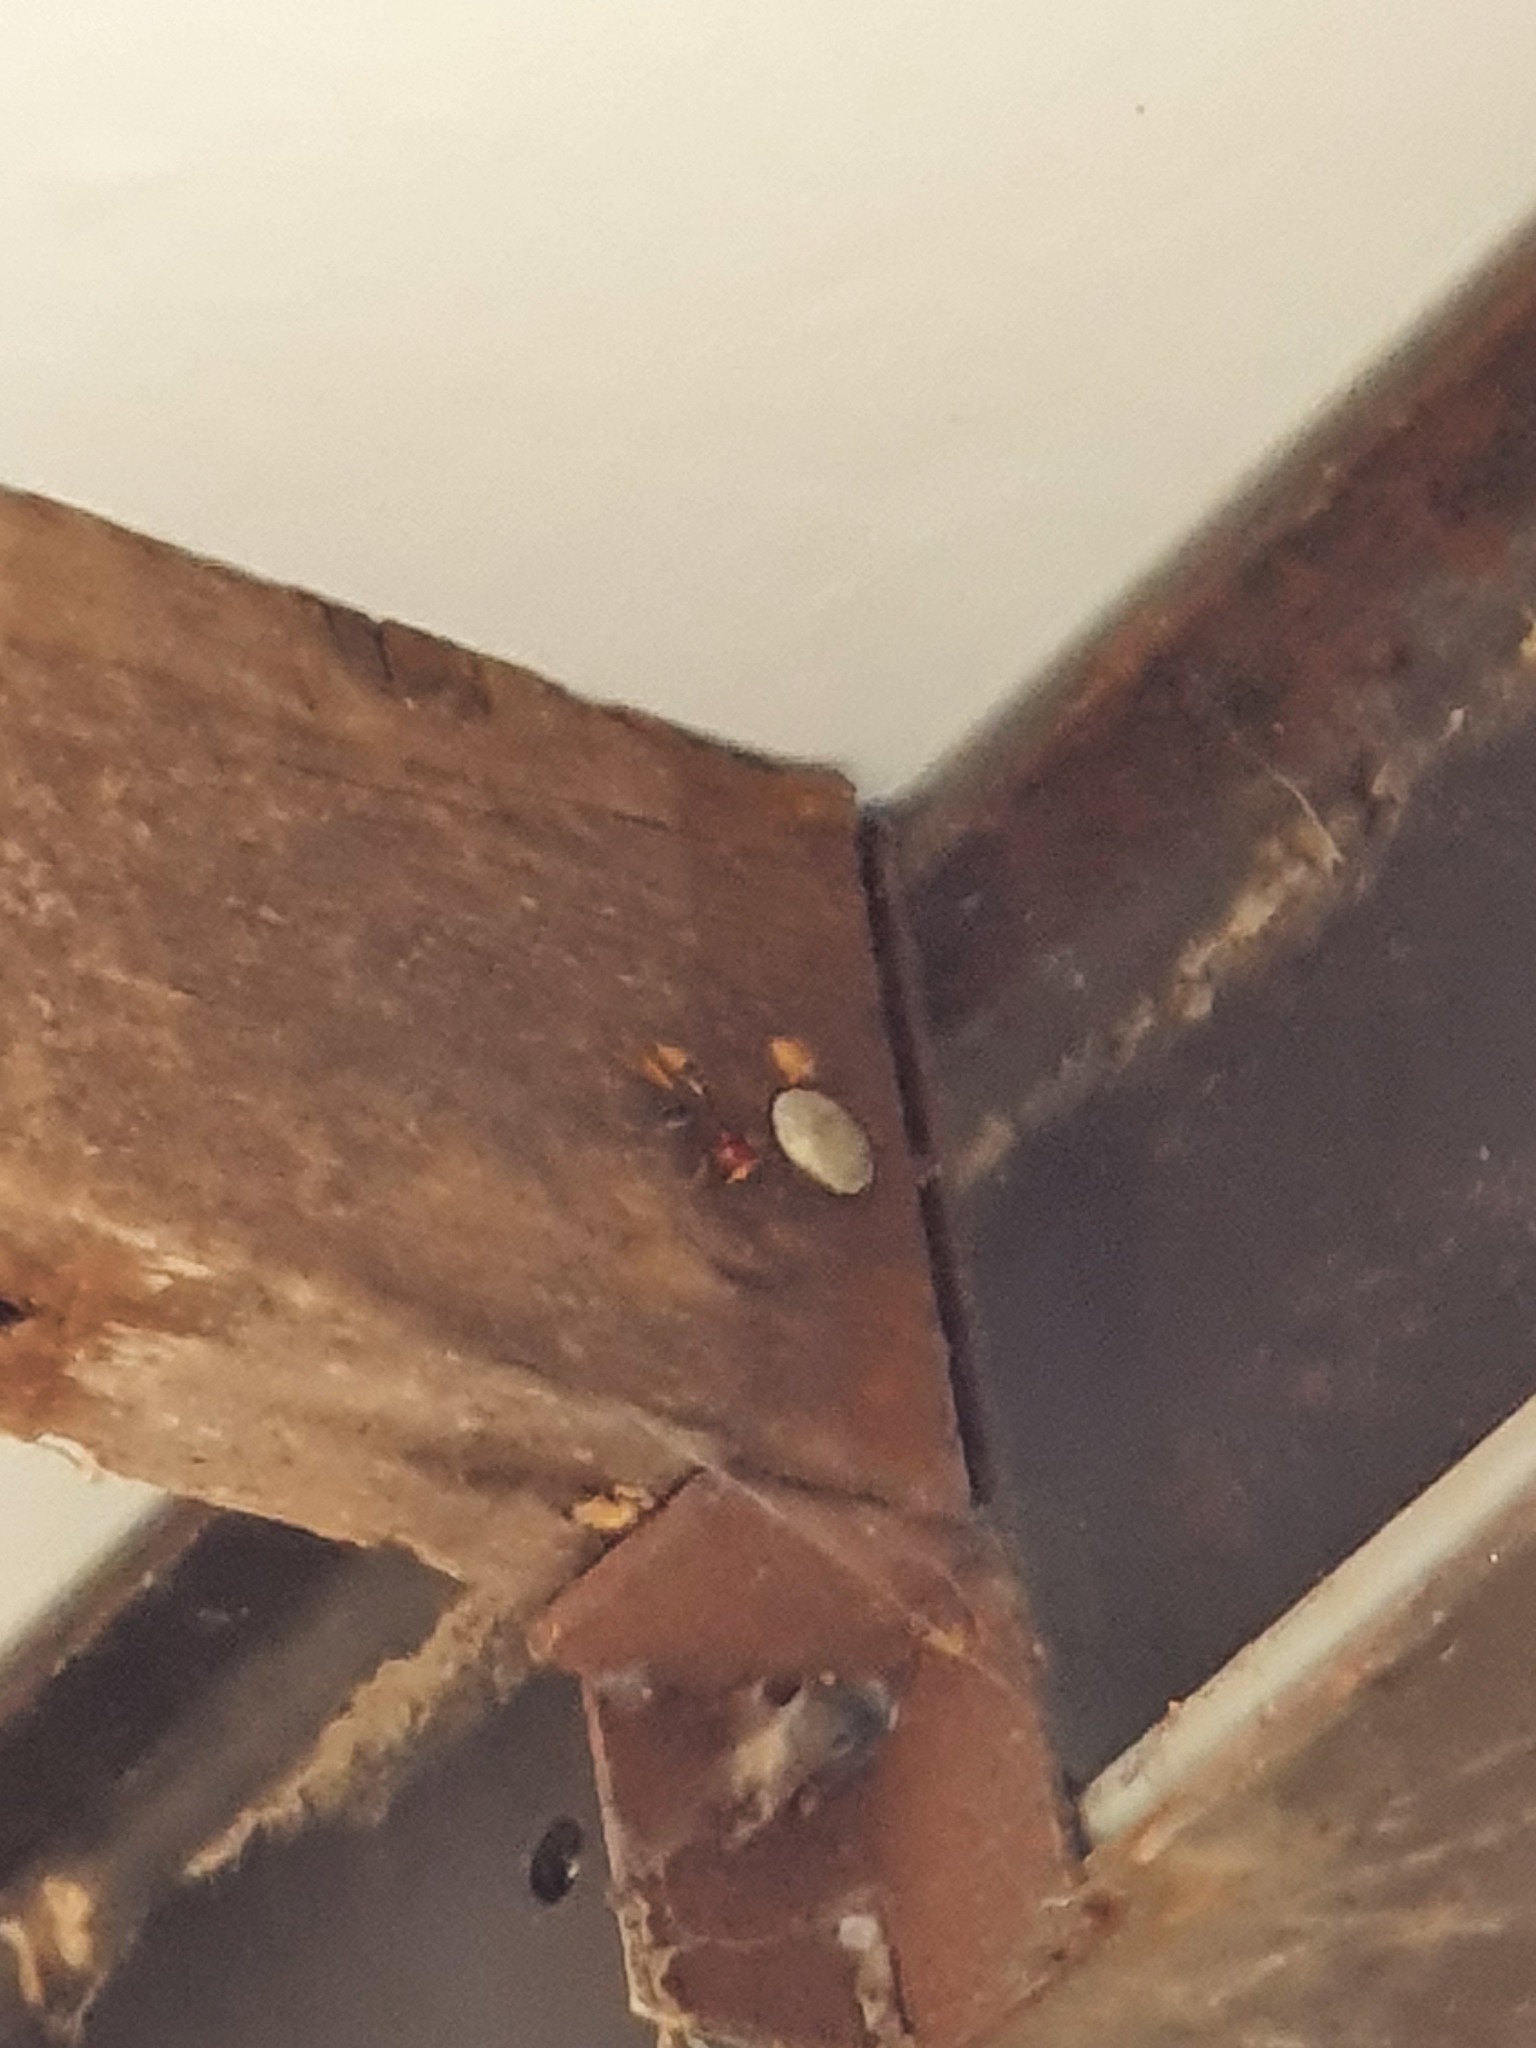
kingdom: Animalia
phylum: Arthropoda
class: Insecta
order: Hymenoptera
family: Vespidae
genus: Vespa
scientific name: Vespa crabro
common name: Hornet
